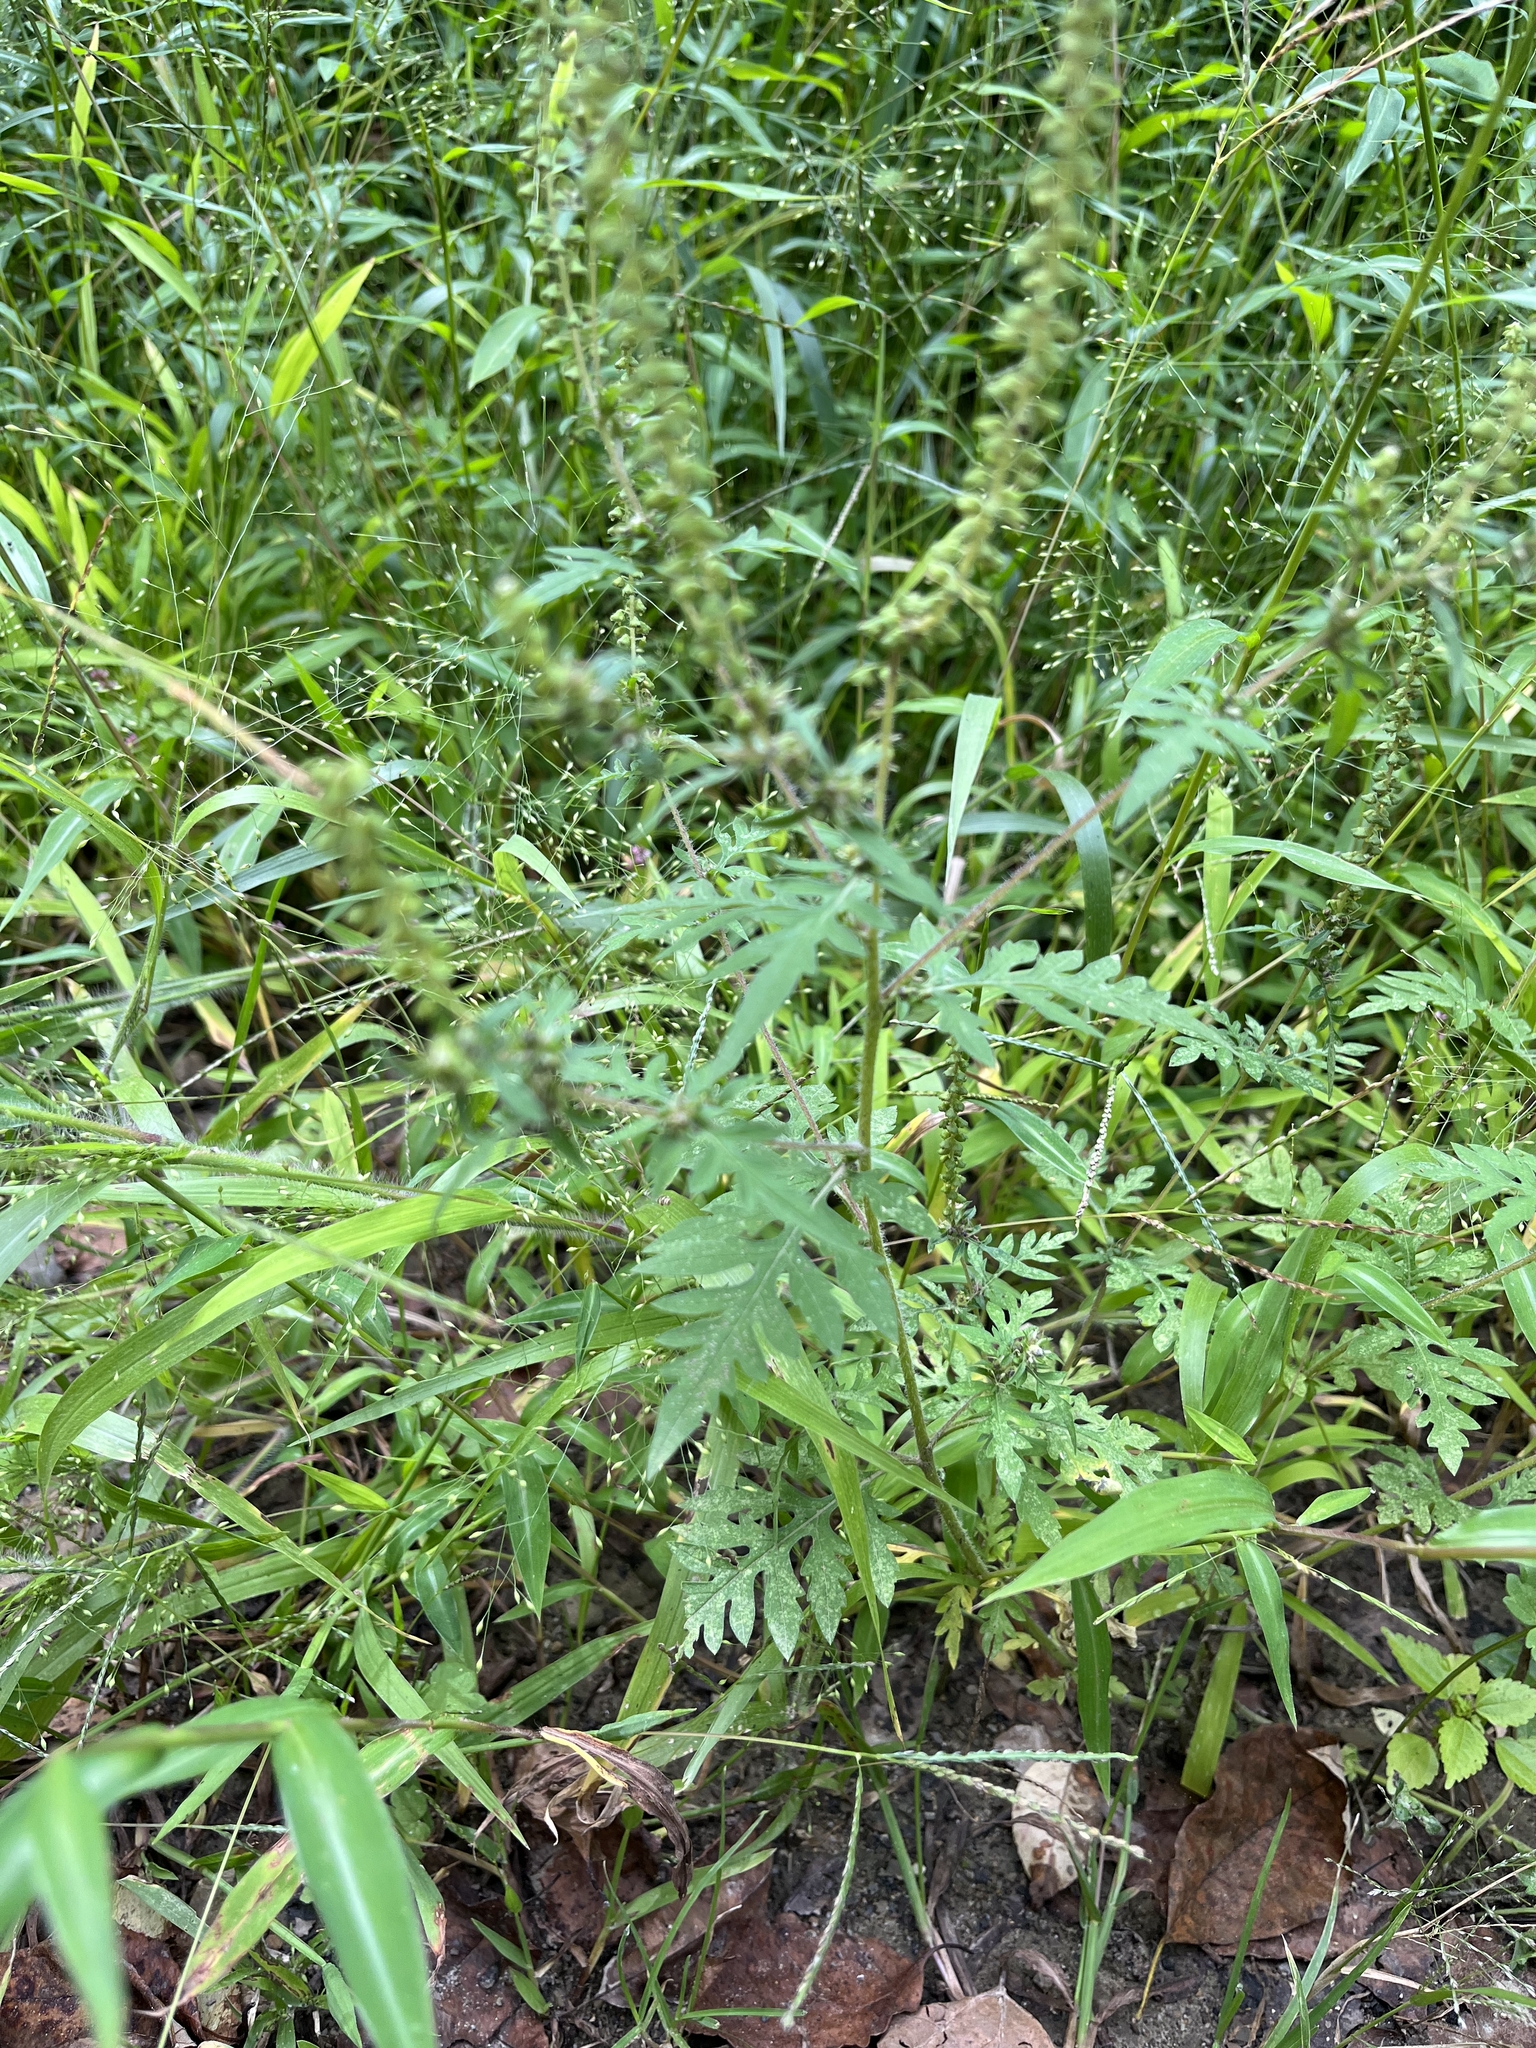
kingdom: Plantae
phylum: Tracheophyta
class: Magnoliopsida
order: Asterales
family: Asteraceae
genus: Ambrosia
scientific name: Ambrosia artemisiifolia
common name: Annual ragweed
